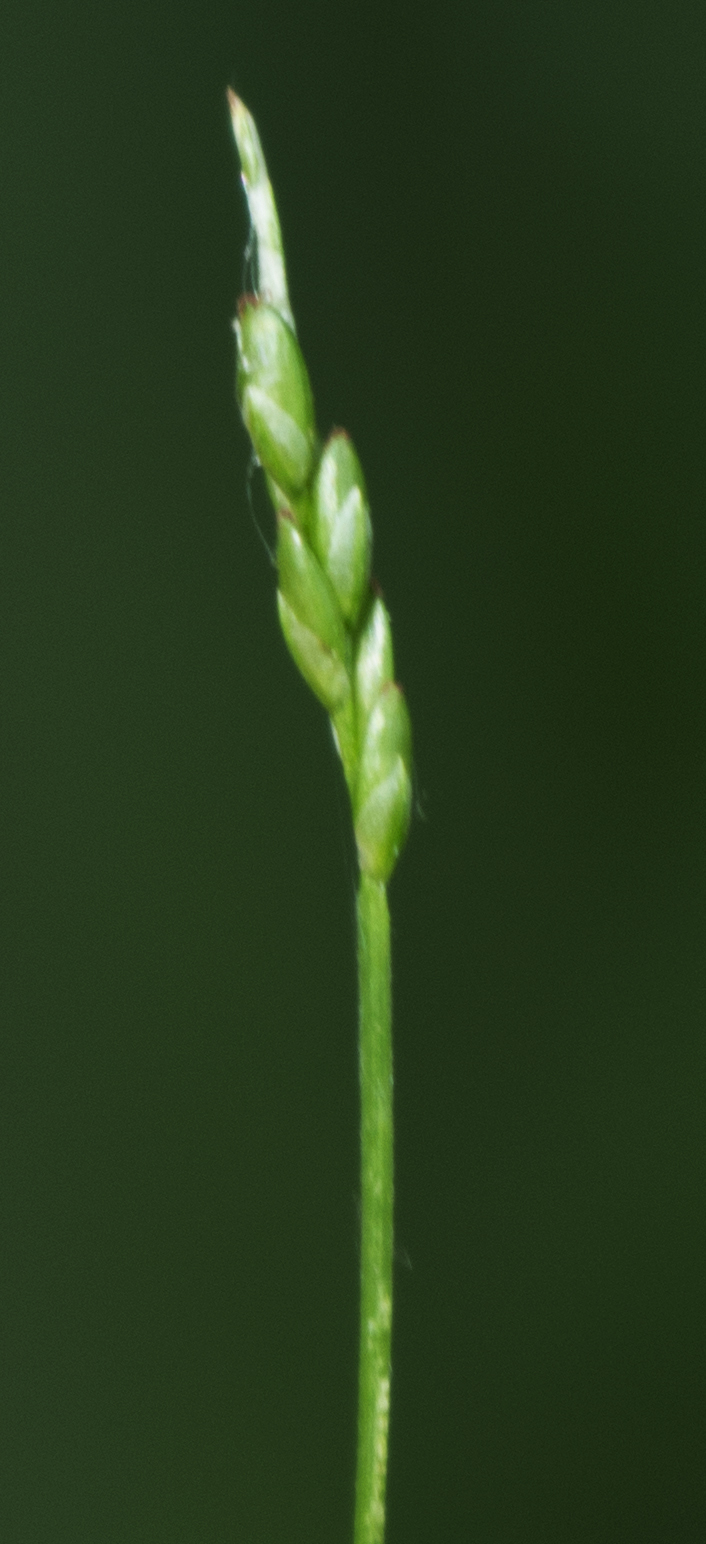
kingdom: Plantae
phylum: Tracheophyta
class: Liliopsida
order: Poales
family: Cyperaceae
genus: Carex
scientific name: Carex leptalea
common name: Bristly-stalked sedge
